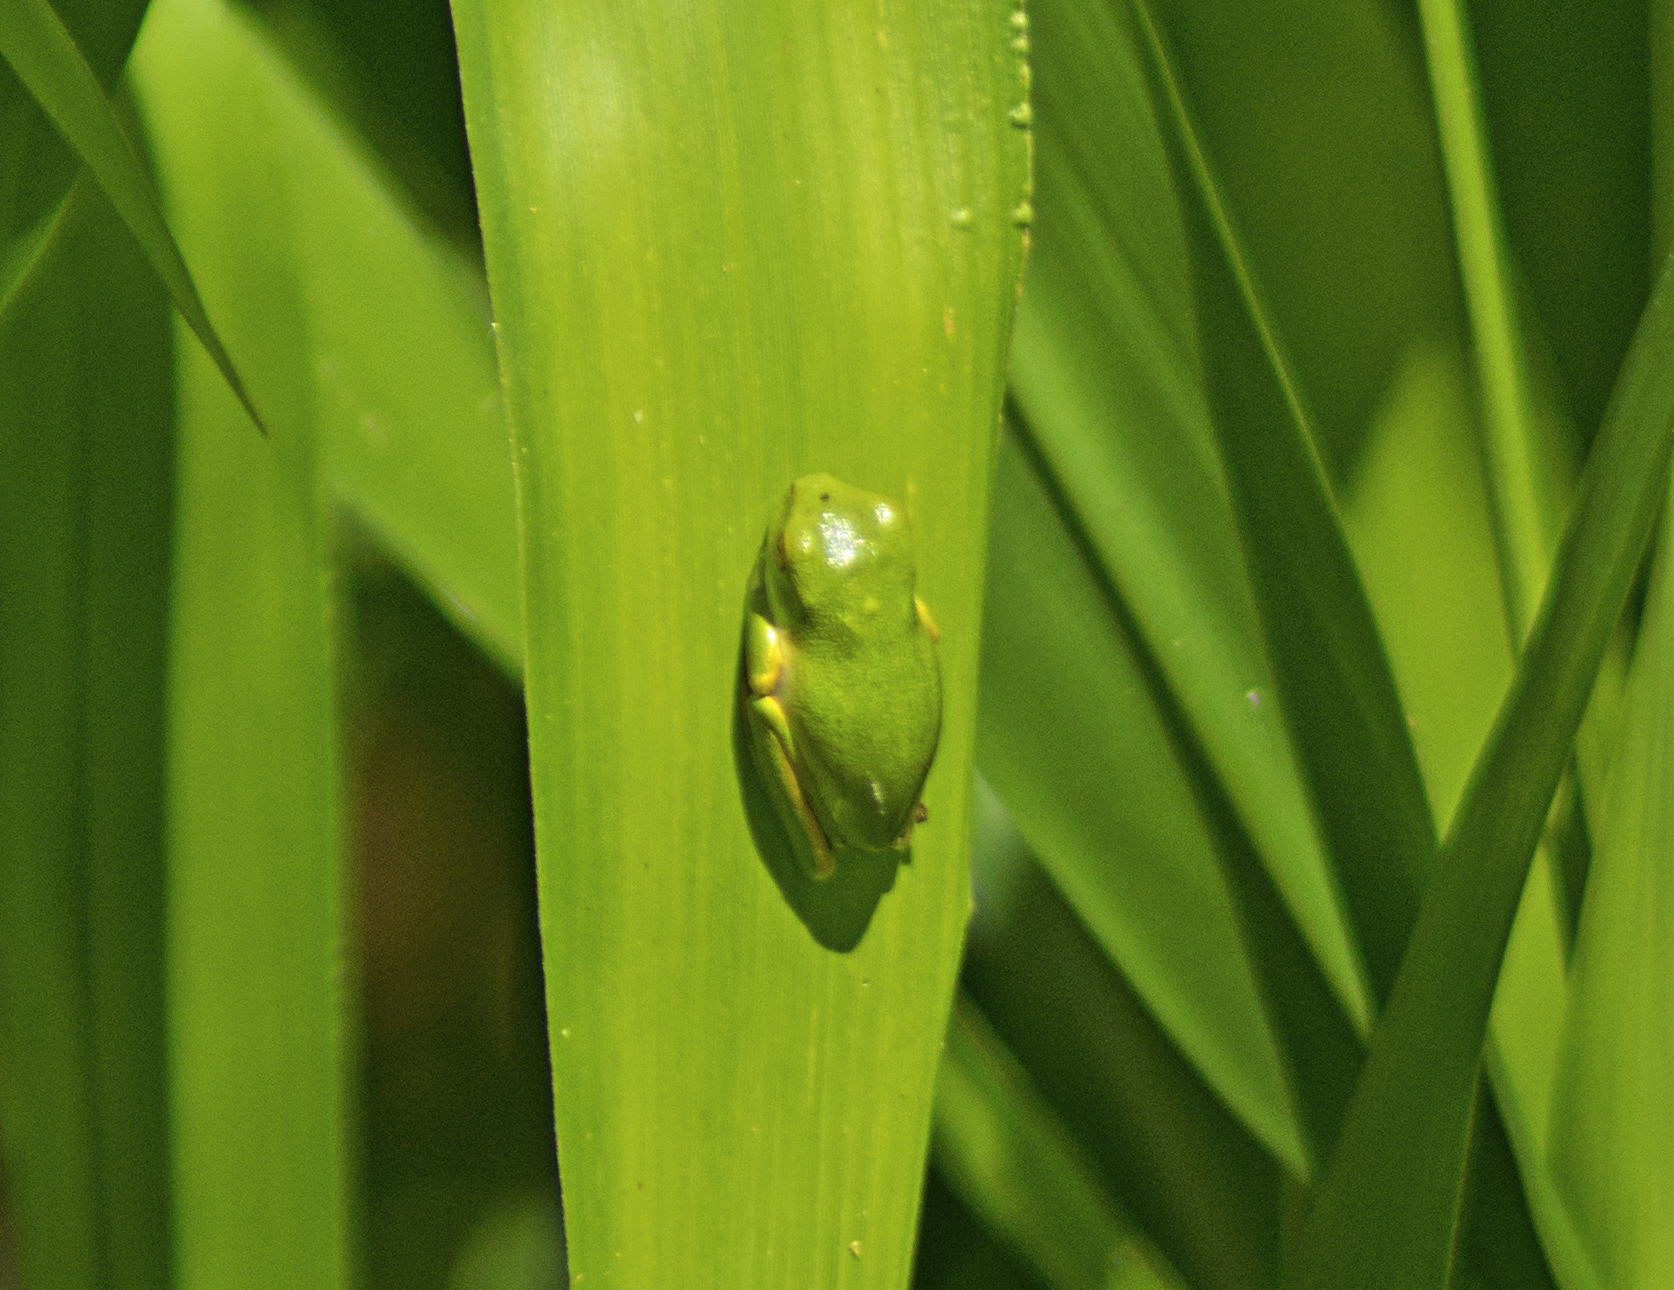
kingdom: Animalia
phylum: Chordata
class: Amphibia
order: Anura
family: Pelodryadidae
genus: Ranoidea
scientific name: Ranoidea gracilenta
